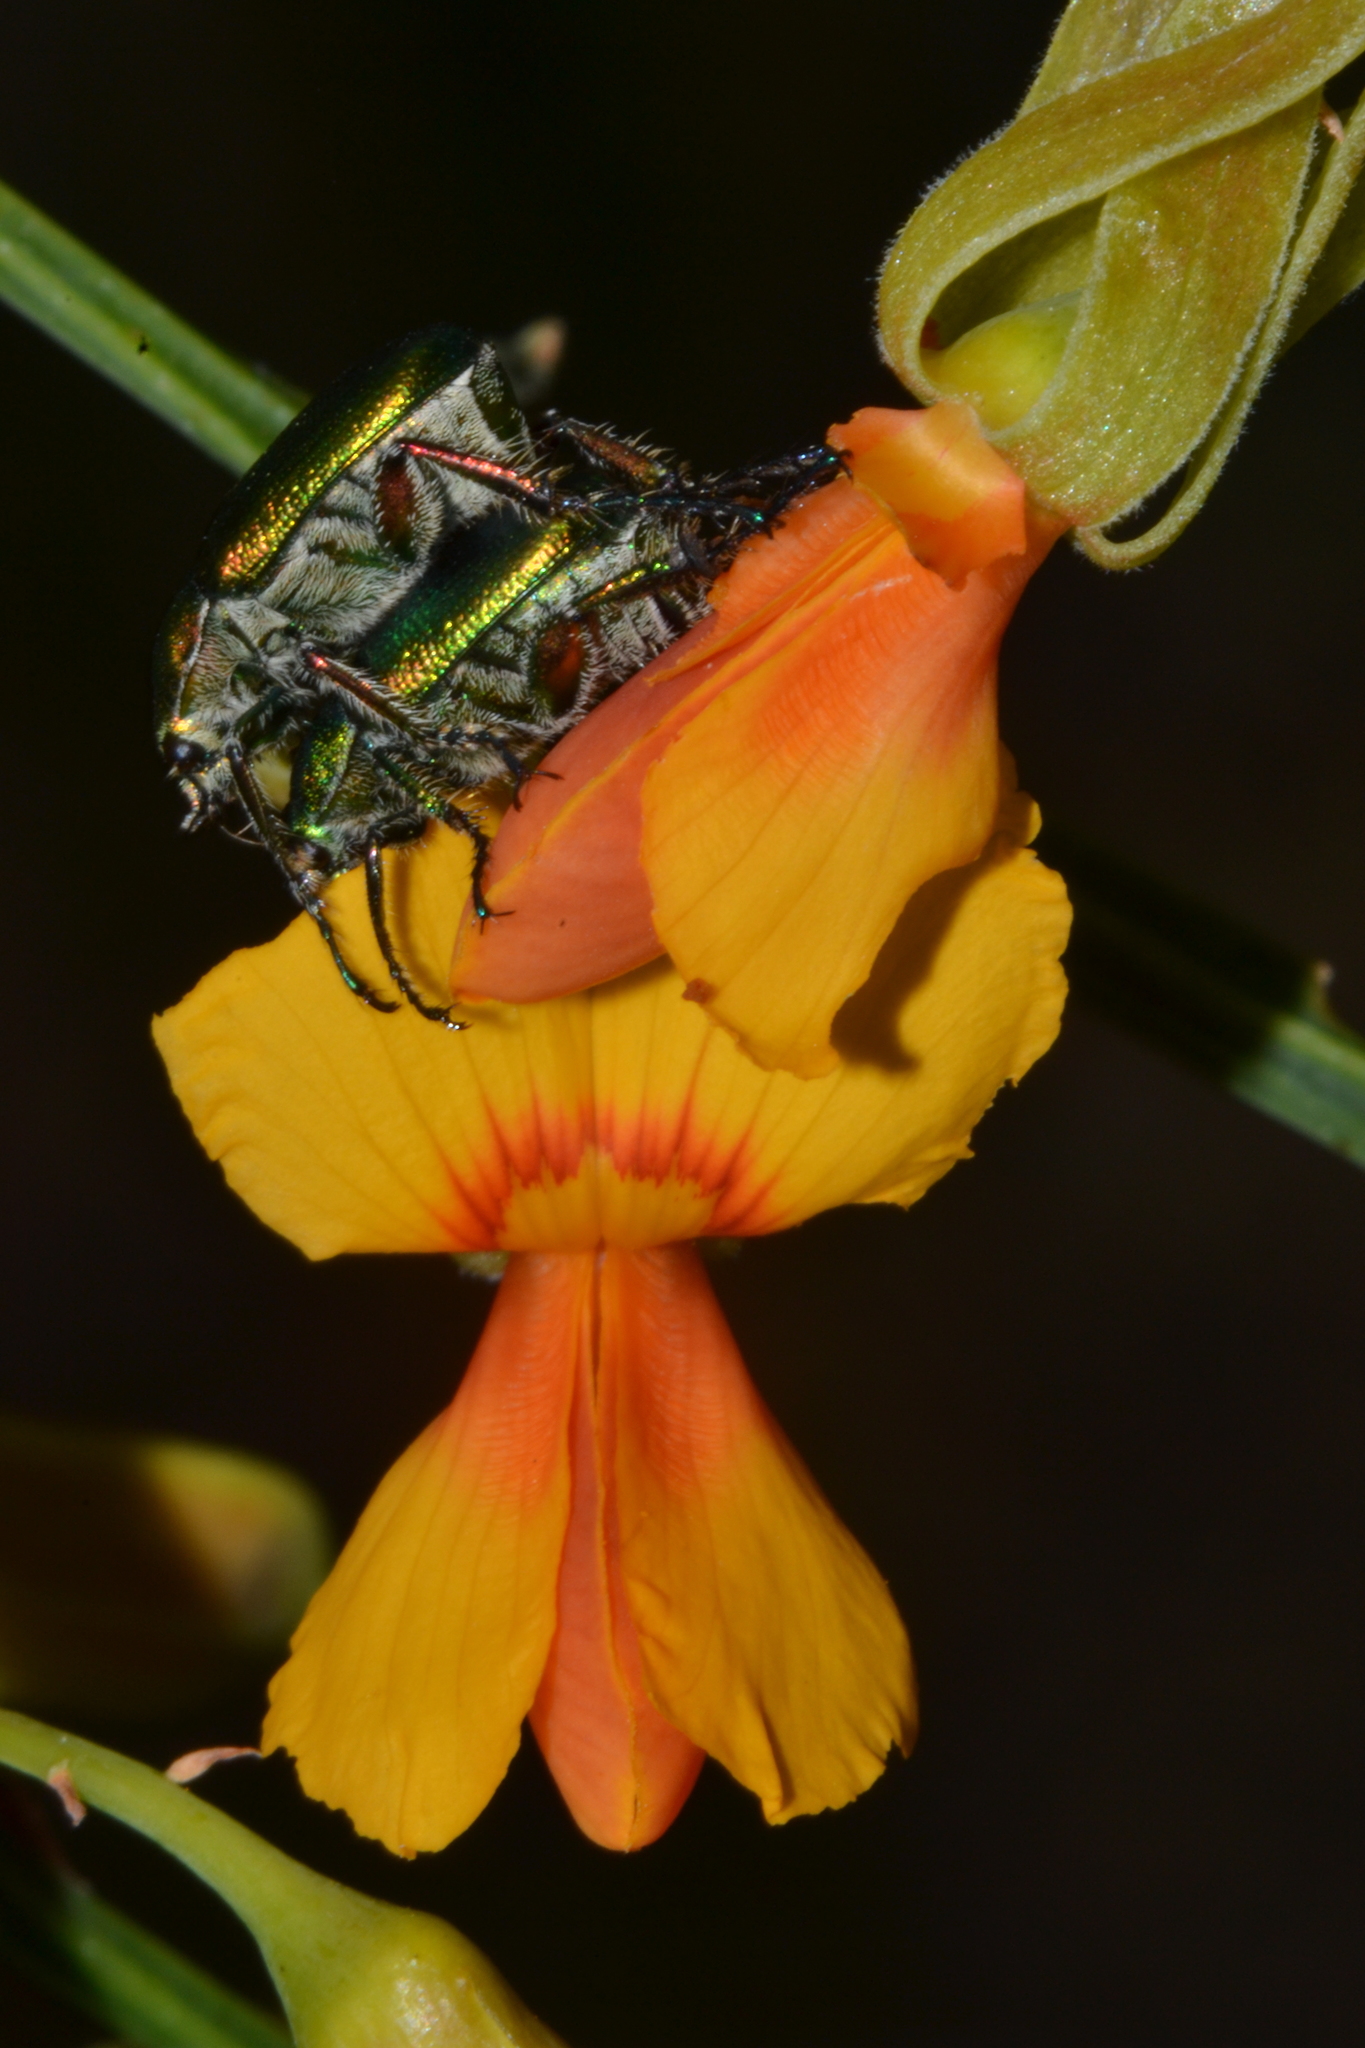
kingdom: Plantae
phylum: Tracheophyta
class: Magnoliopsida
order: Fabales
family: Fabaceae
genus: Jacksonia
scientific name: Jacksonia sternbergiana
